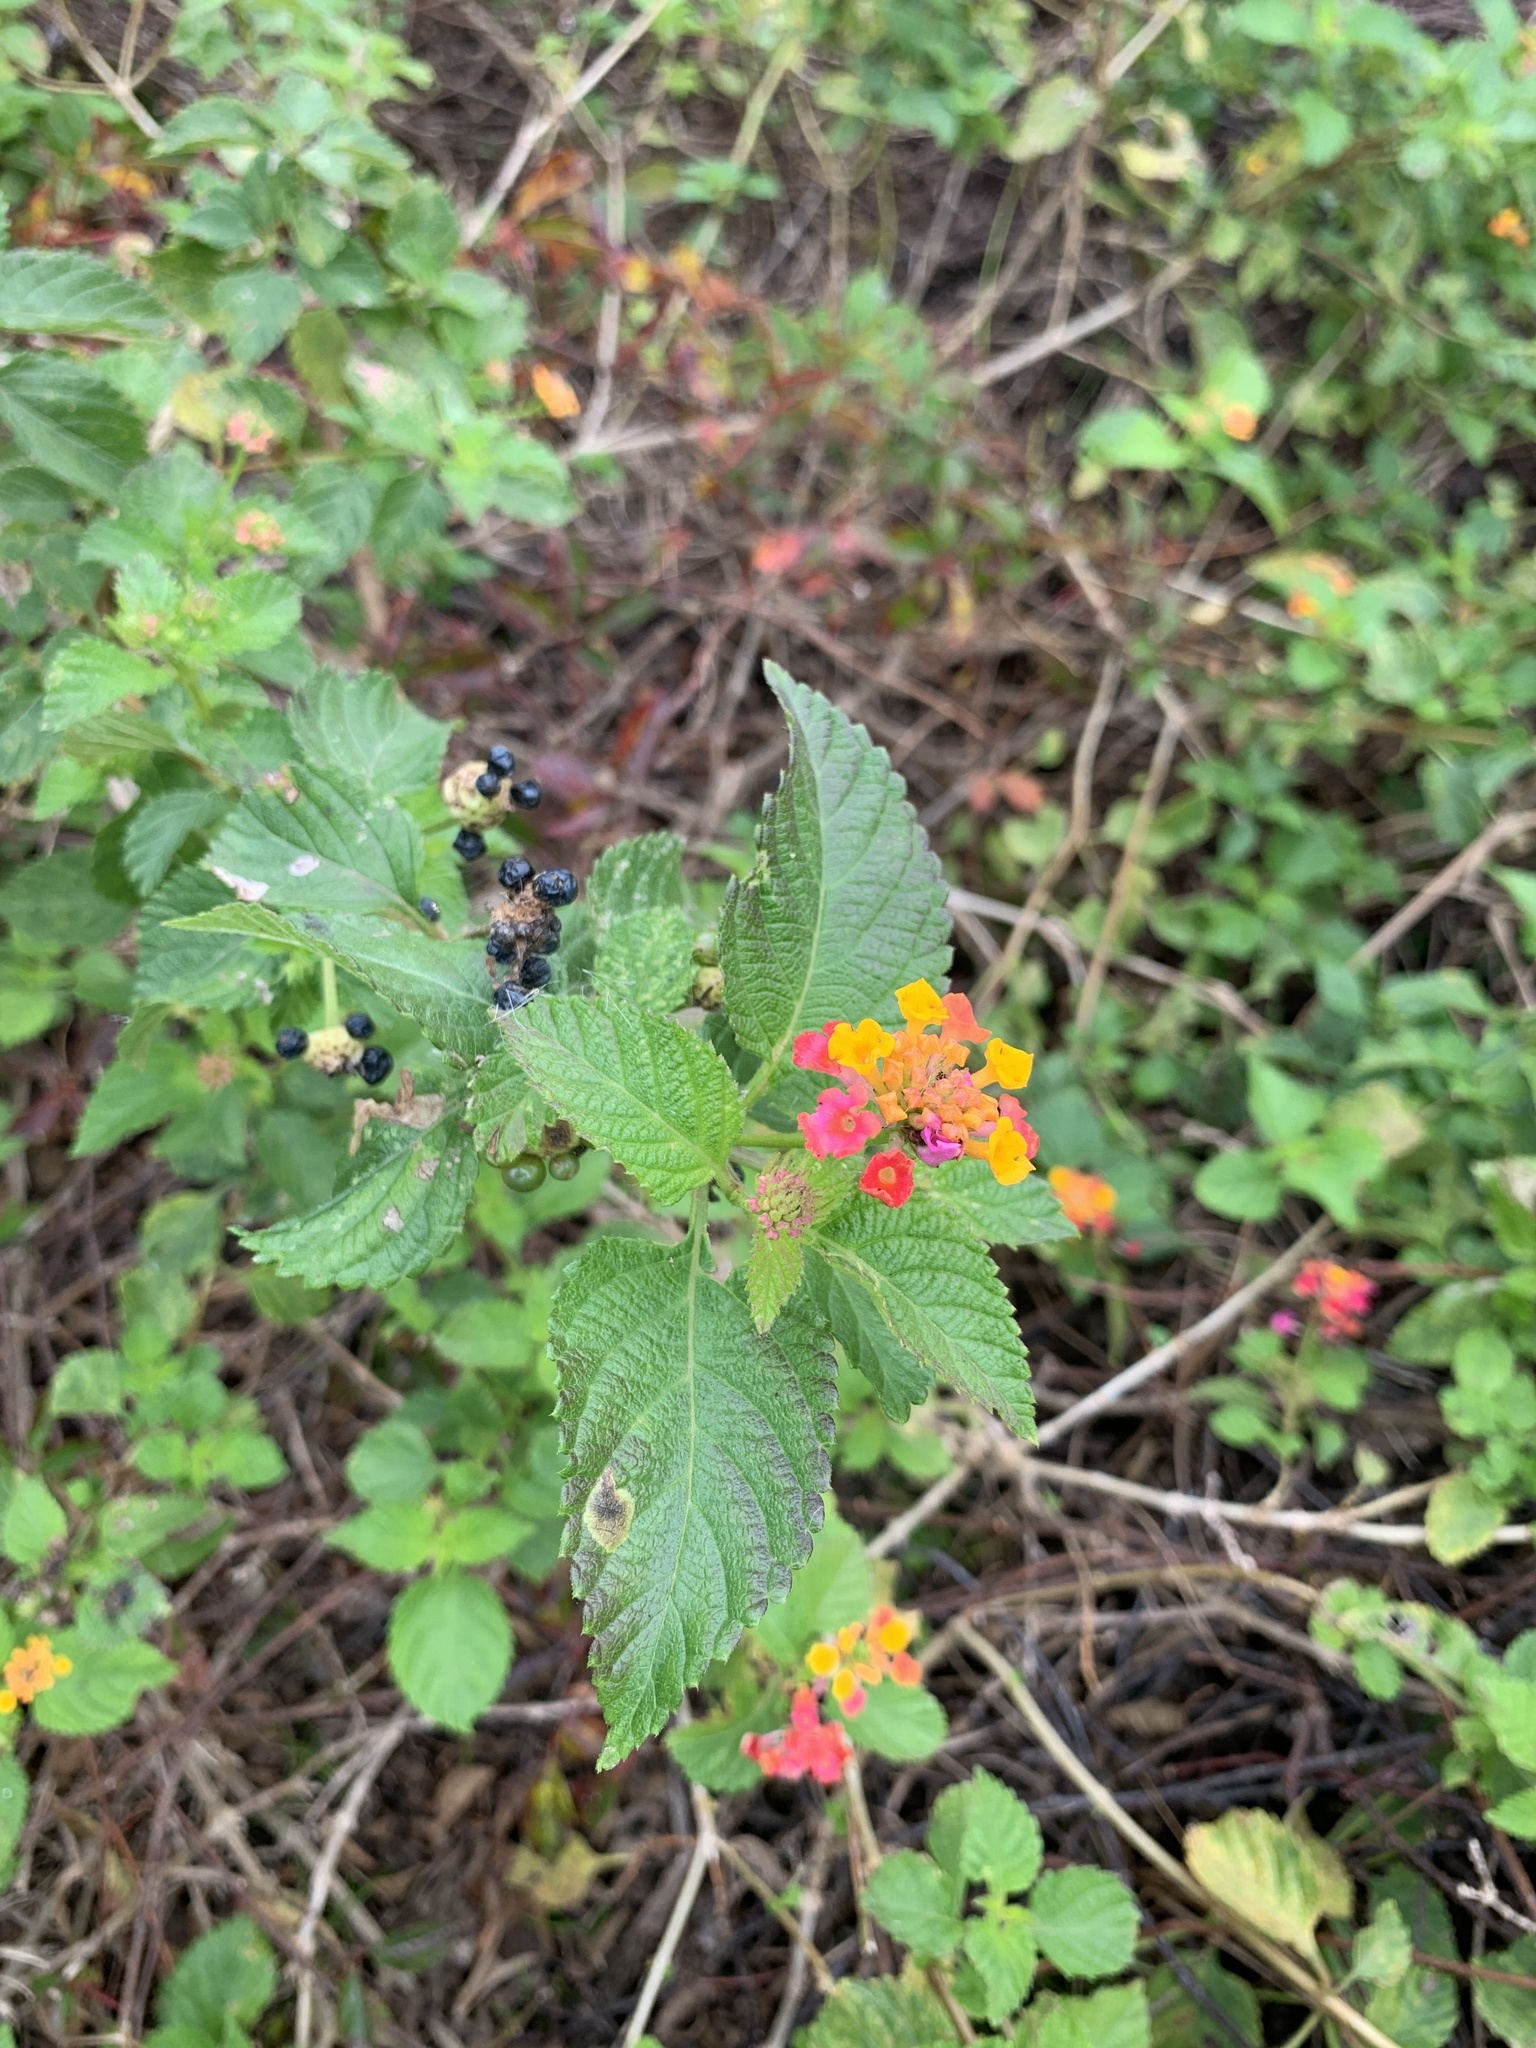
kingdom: Plantae
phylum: Tracheophyta
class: Magnoliopsida
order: Lamiales
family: Verbenaceae
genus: Lantana
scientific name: Lantana camara
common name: Lantana
